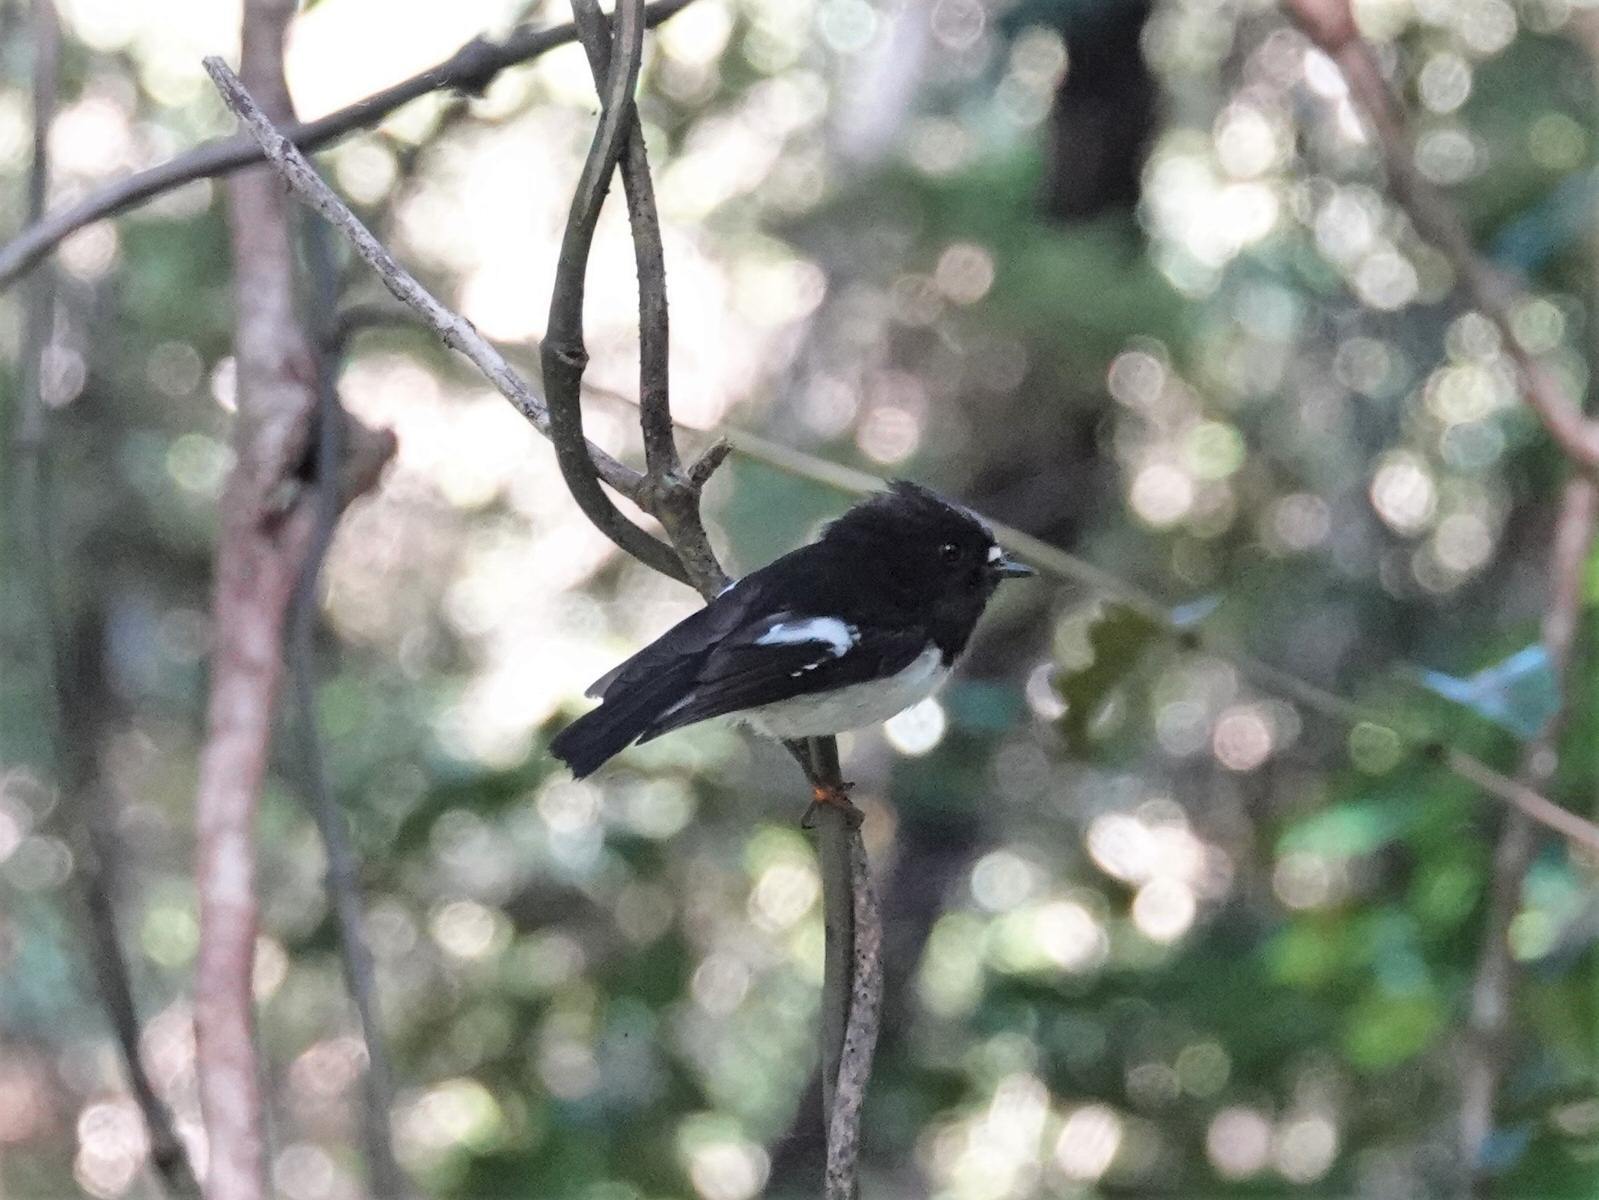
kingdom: Animalia
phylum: Chordata
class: Aves
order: Passeriformes
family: Petroicidae
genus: Petroica
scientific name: Petroica macrocephala
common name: Tomtit
